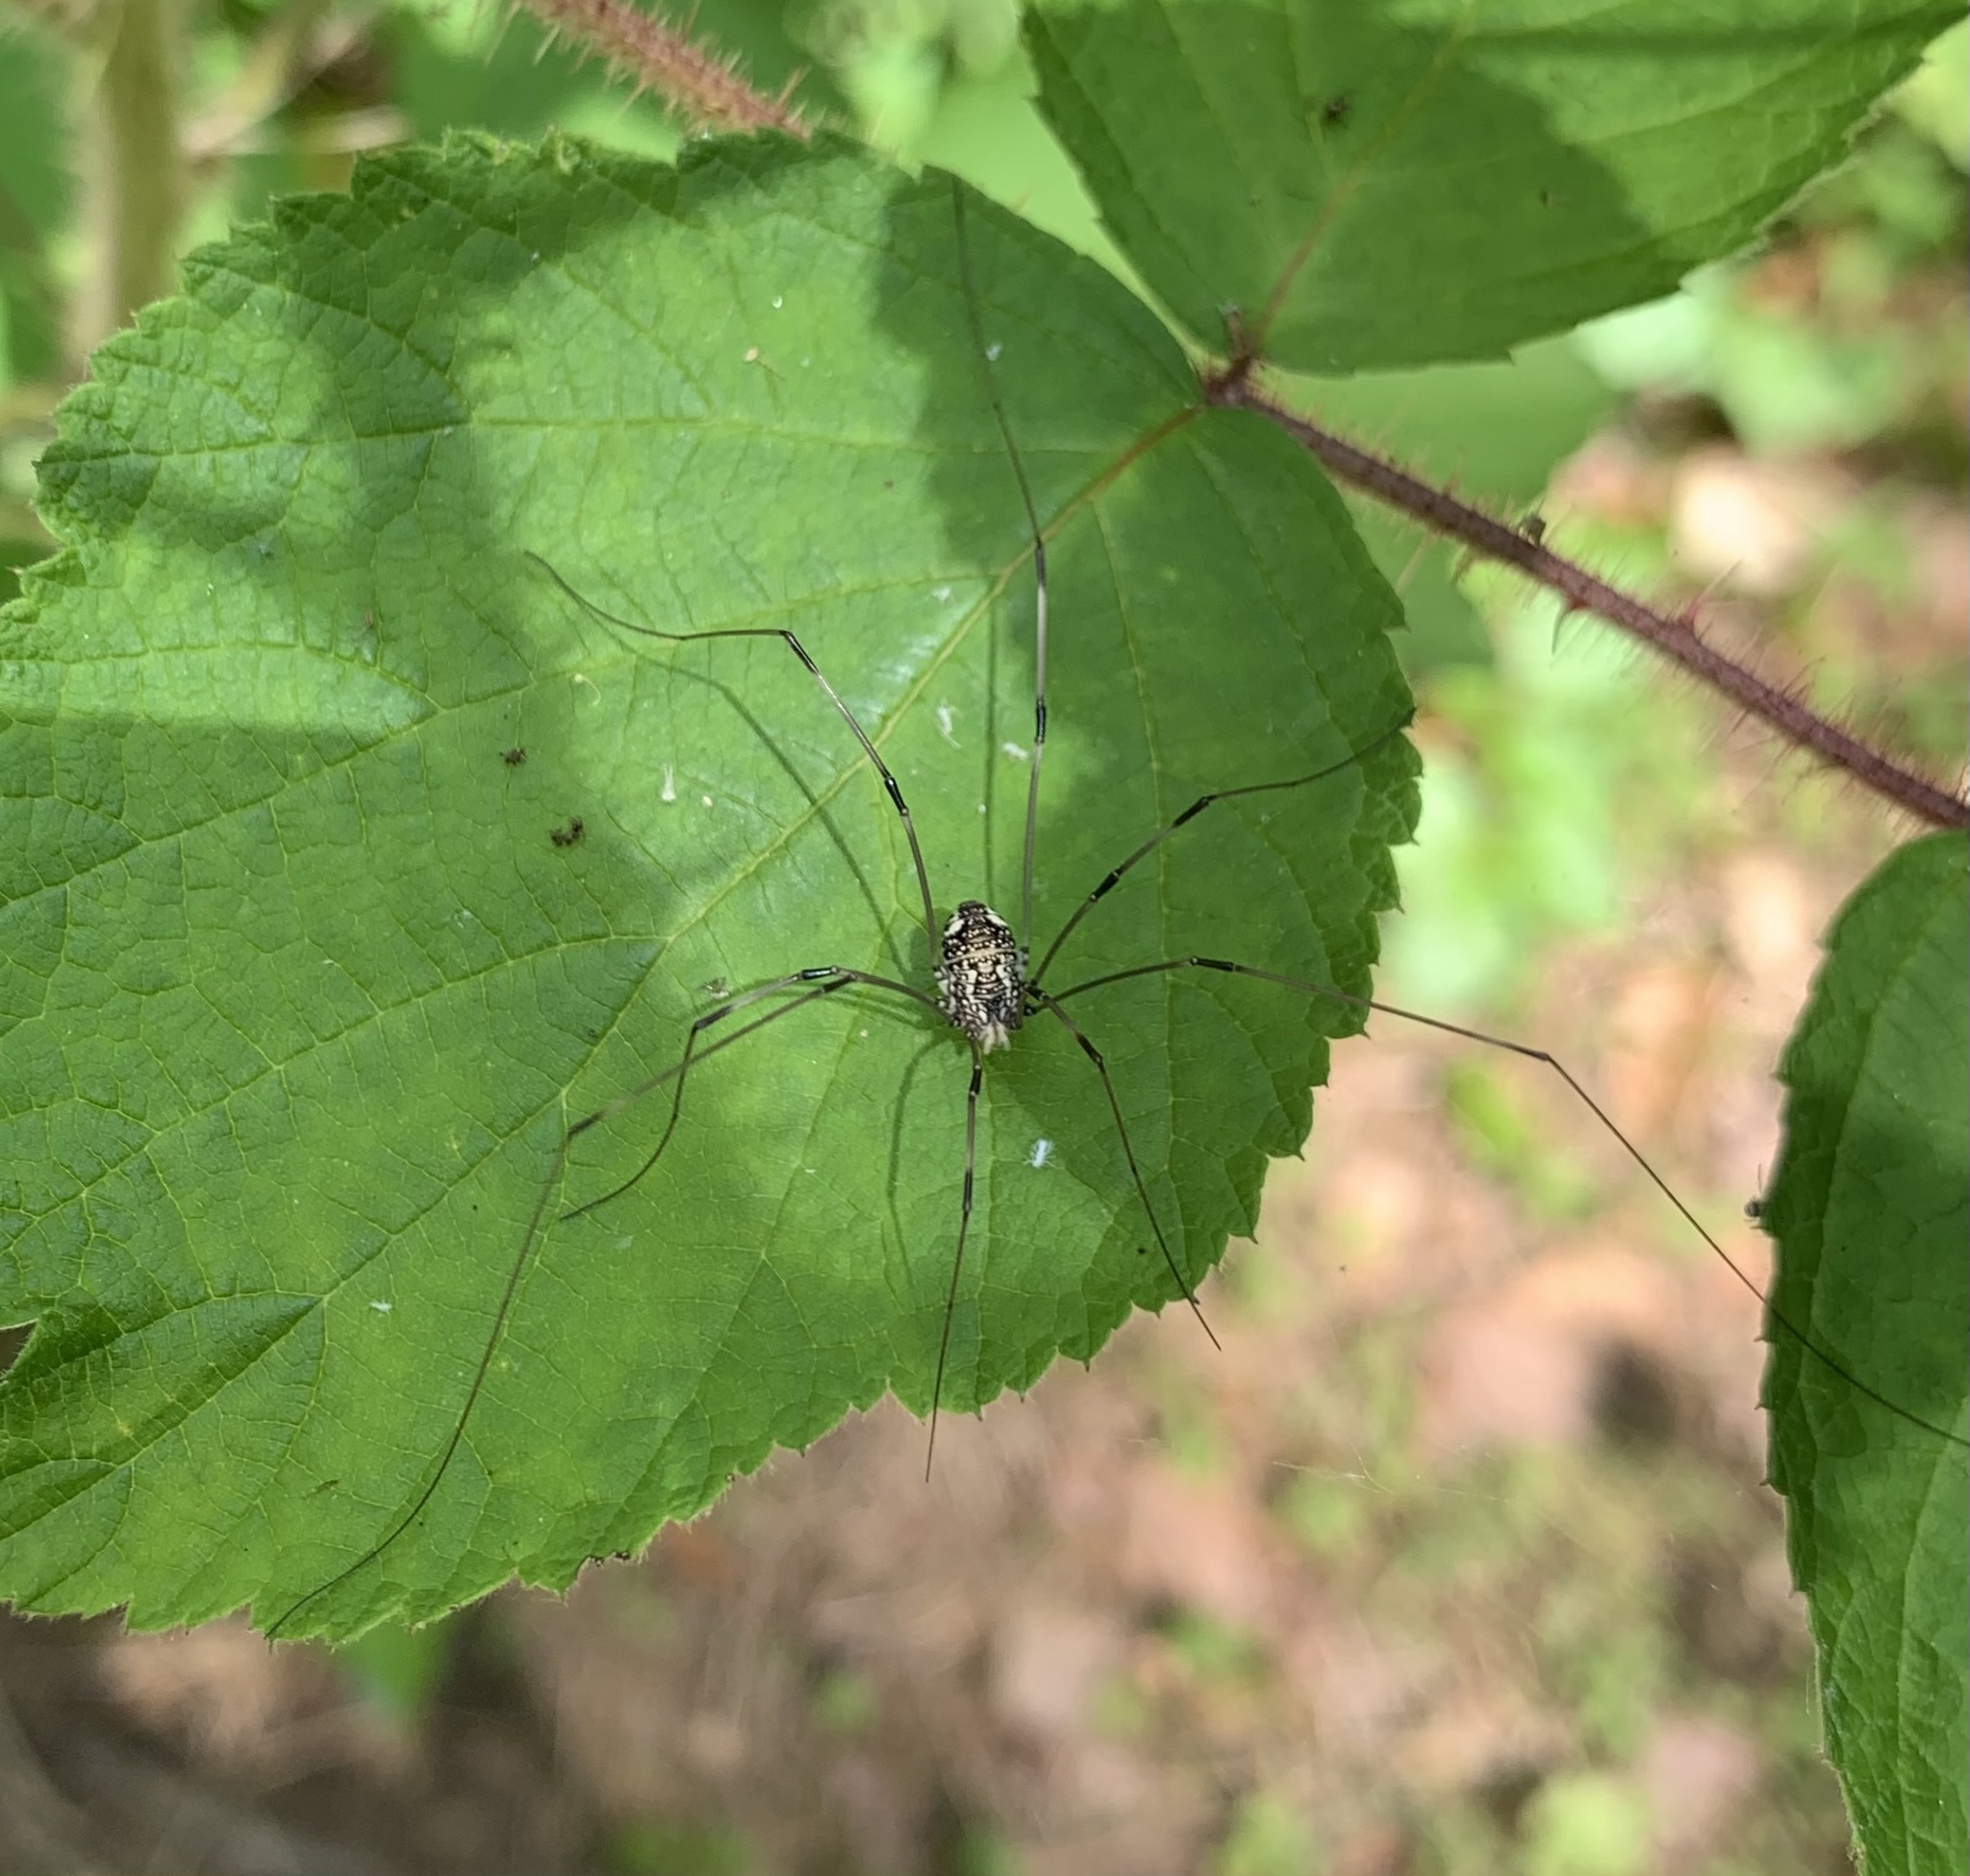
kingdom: Animalia
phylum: Arthropoda
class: Arachnida
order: Opiliones
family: Sclerosomatidae
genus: Leiobunum
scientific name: Leiobunum vittatum
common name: Eastern harvestman
